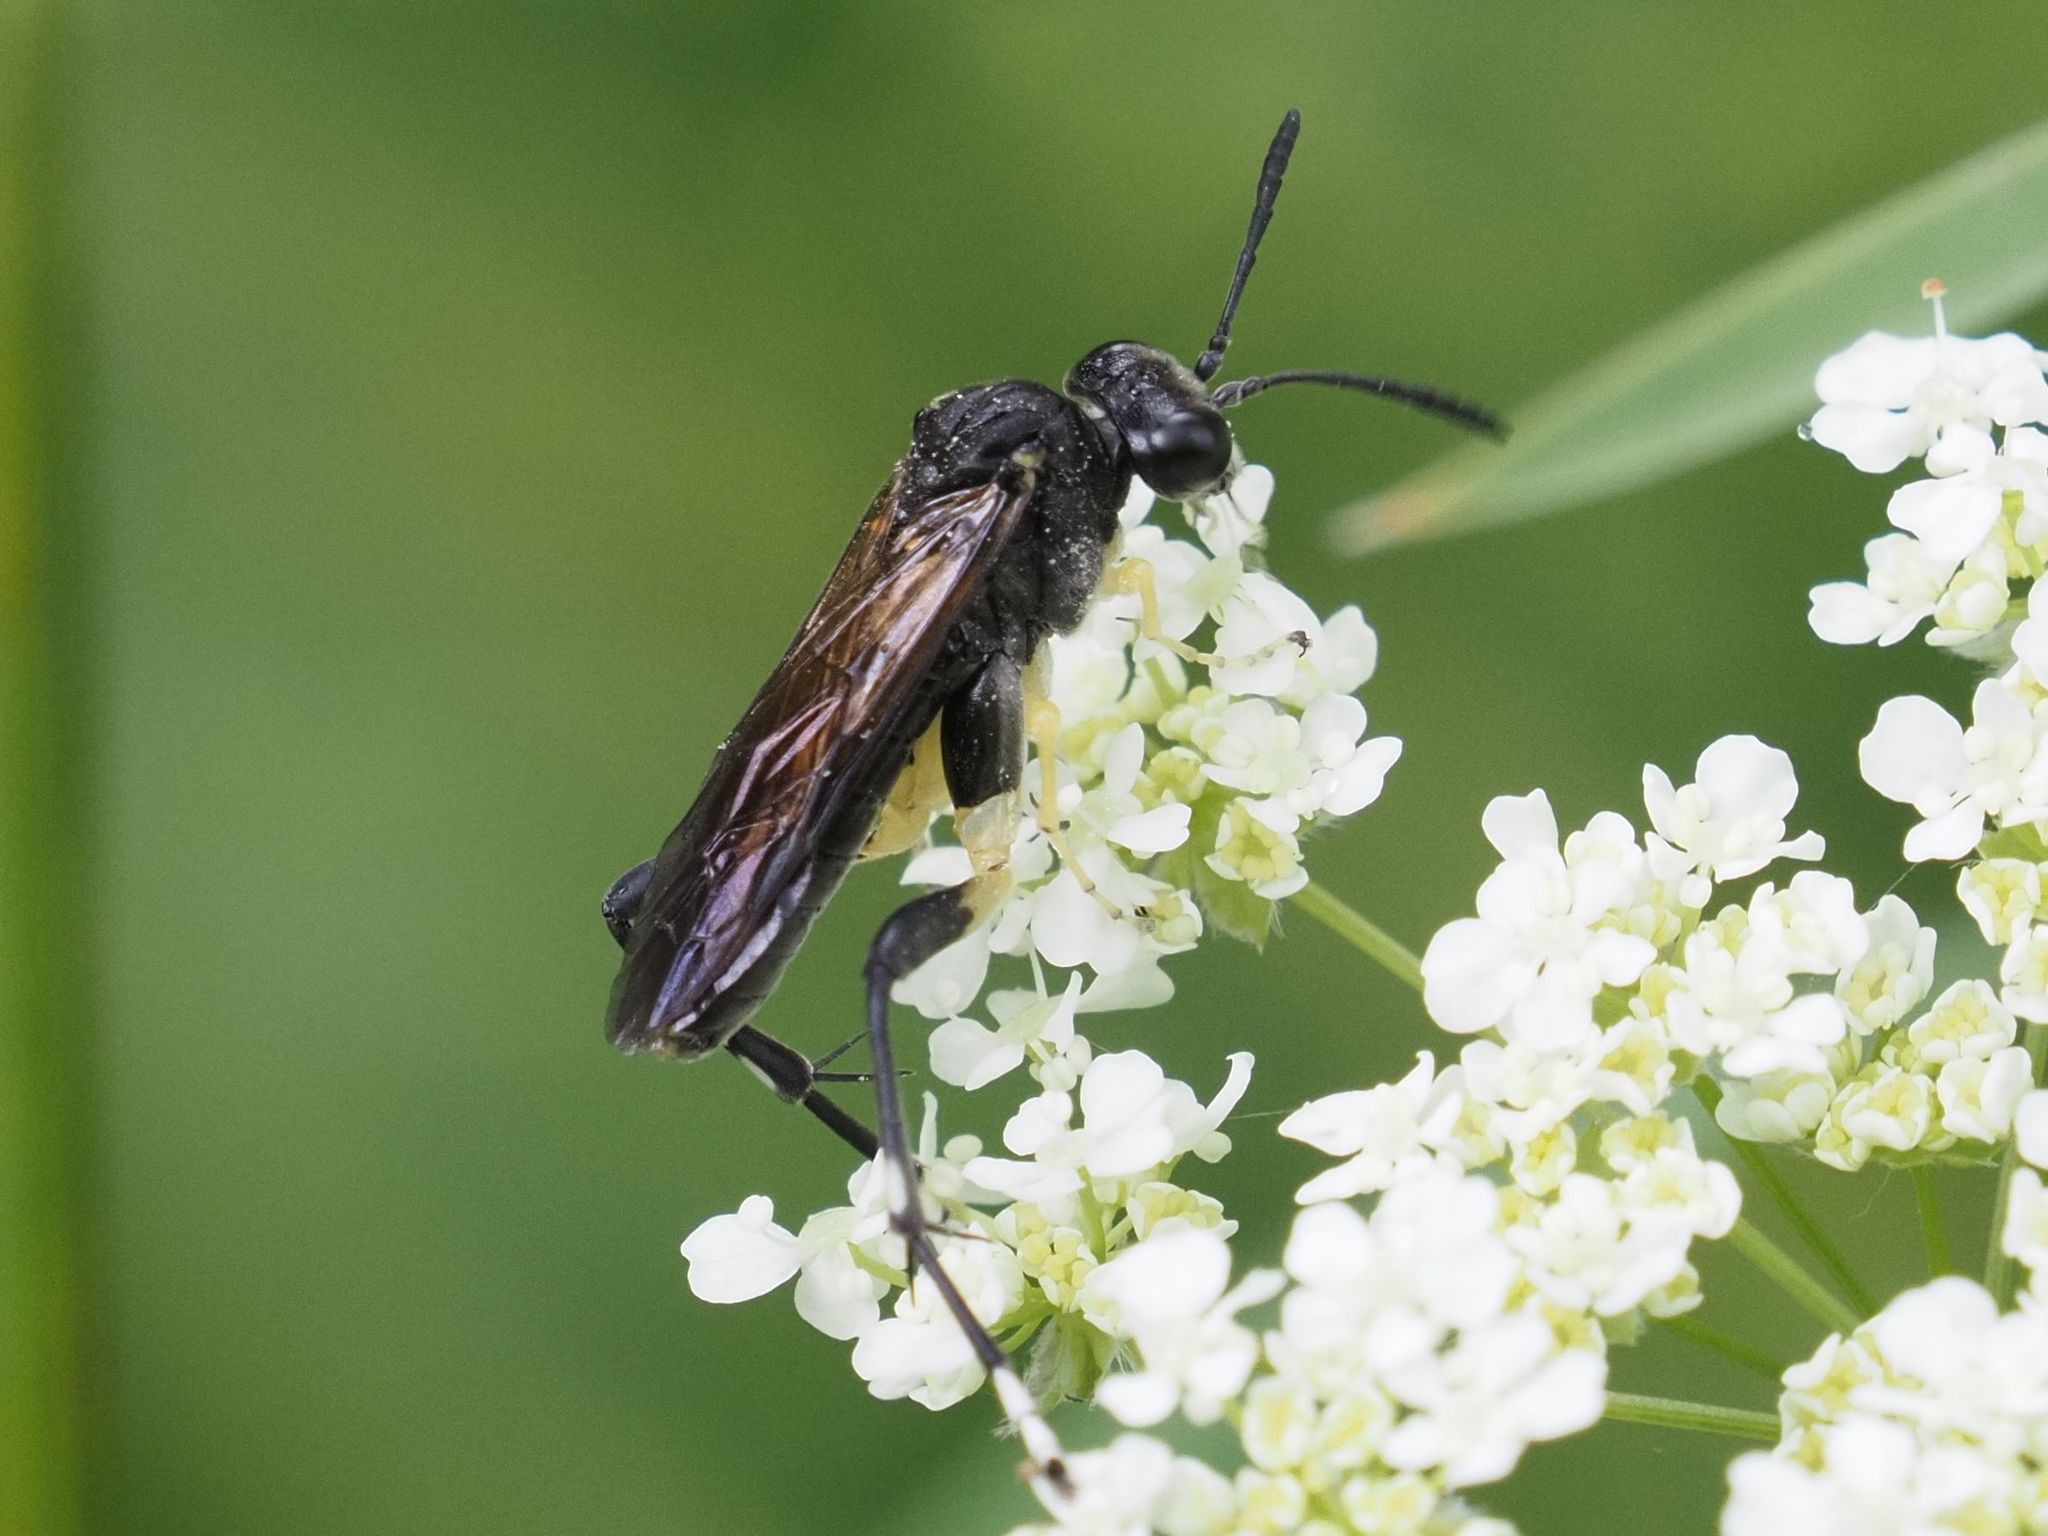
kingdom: Animalia
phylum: Arthropoda
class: Insecta
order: Hymenoptera
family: Tenthredinidae
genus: Macrophya
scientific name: Macrophya montana
